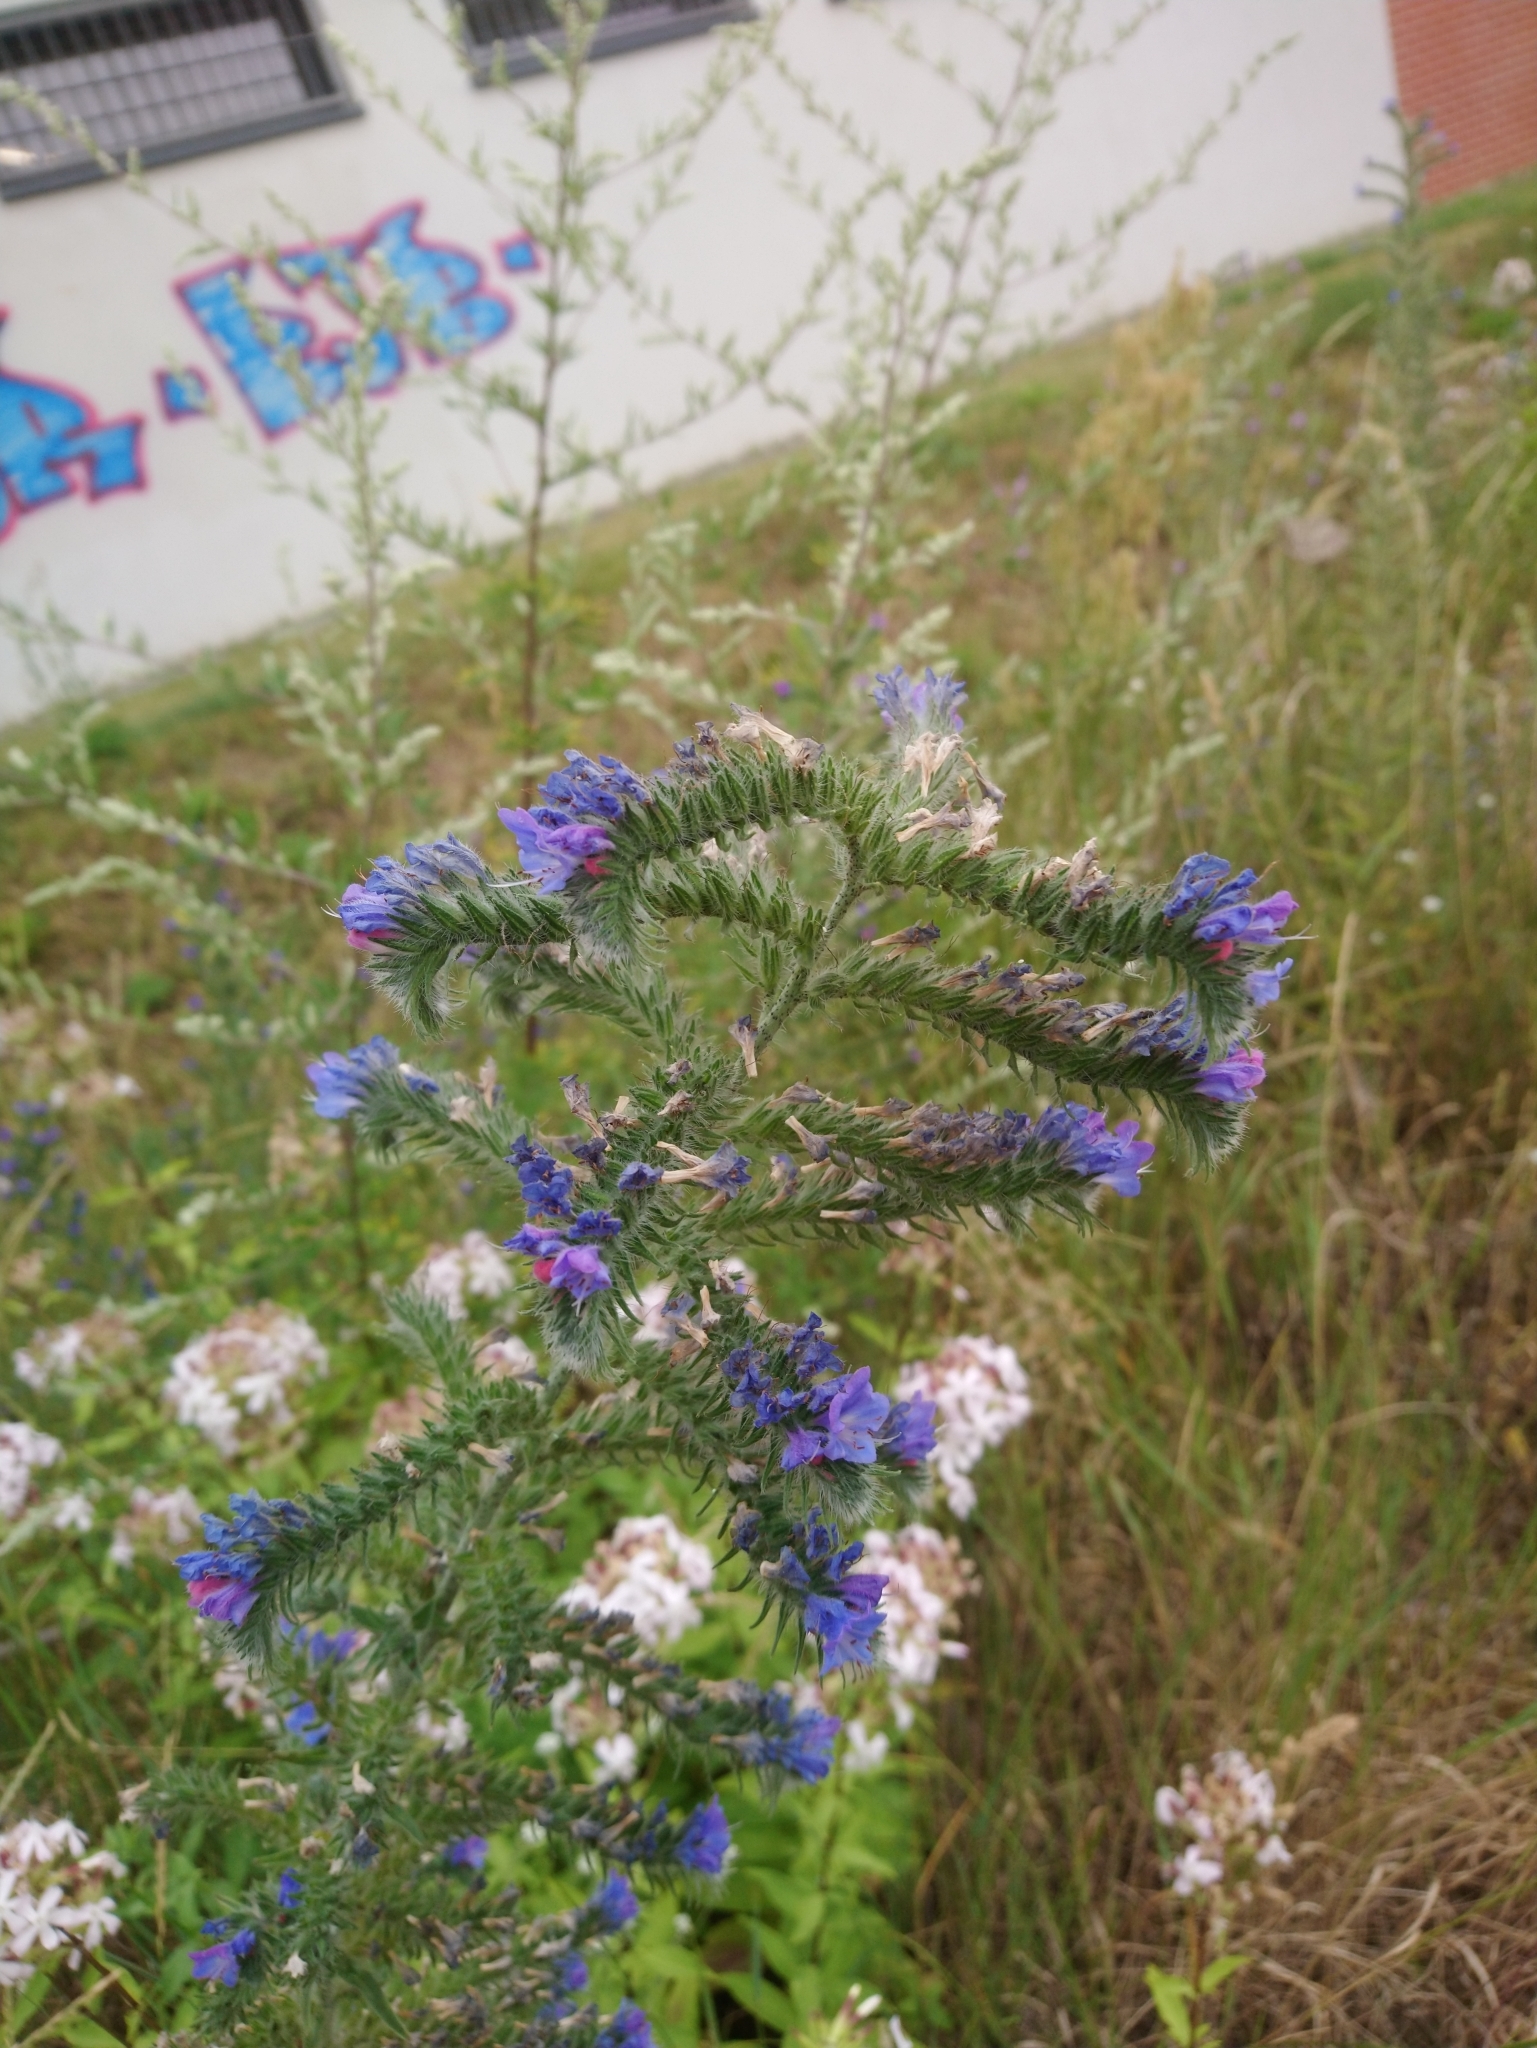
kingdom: Plantae
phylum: Tracheophyta
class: Magnoliopsida
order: Boraginales
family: Boraginaceae
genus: Echium
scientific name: Echium vulgare
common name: Common viper's bugloss
